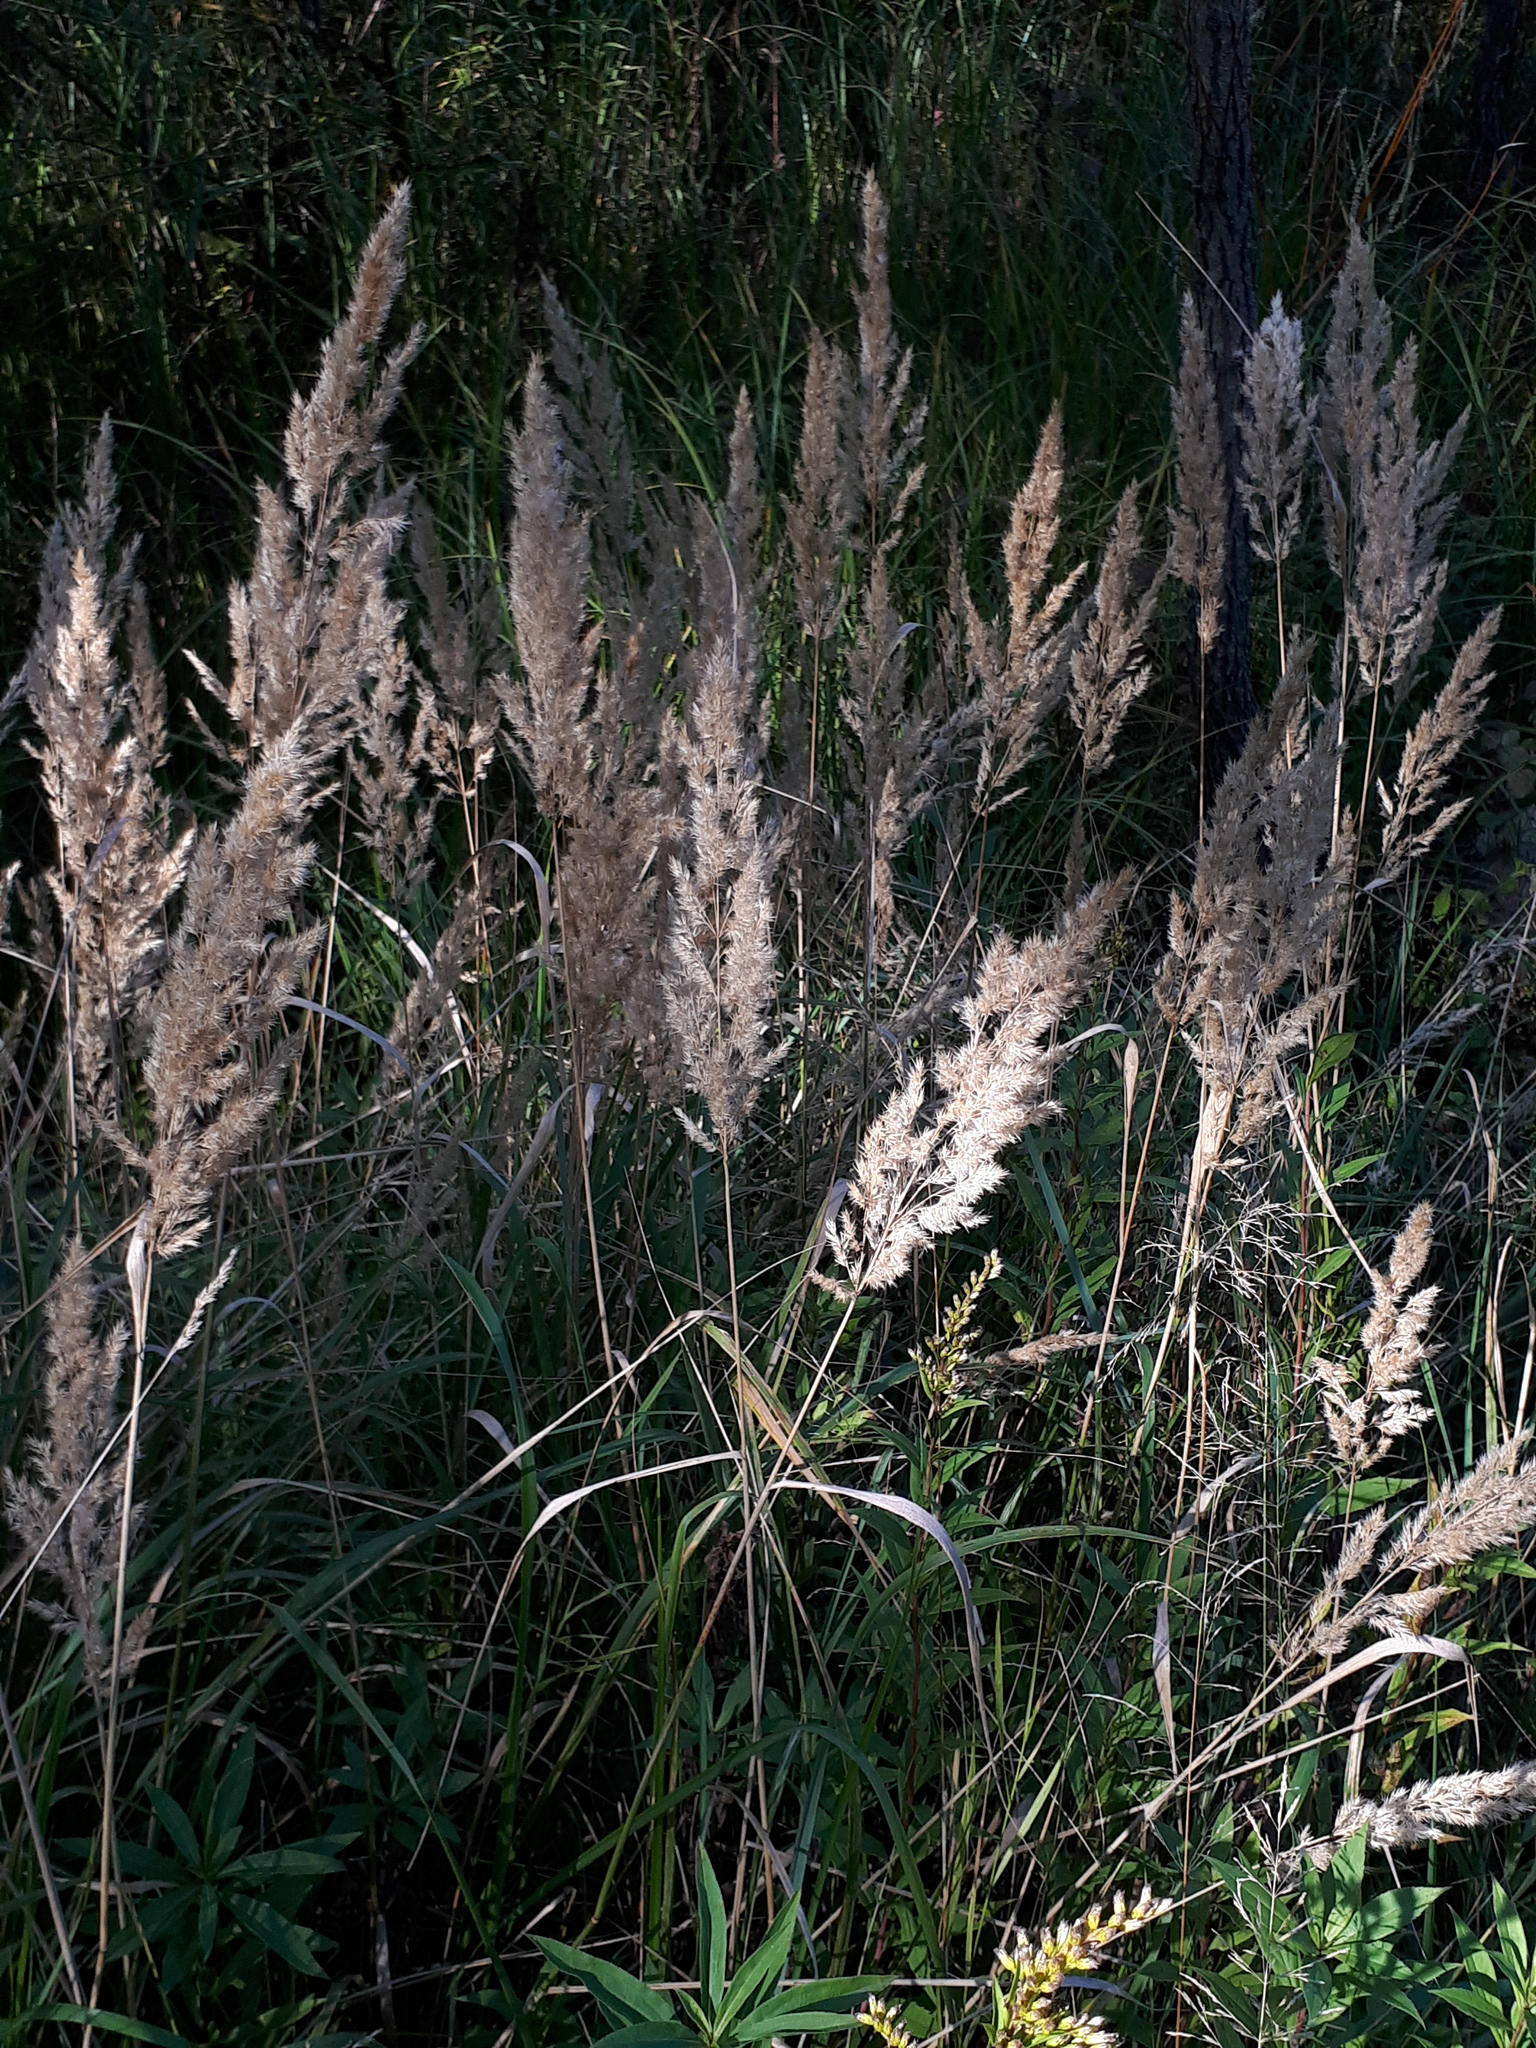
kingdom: Plantae
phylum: Tracheophyta
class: Liliopsida
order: Poales
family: Poaceae
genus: Calamagrostis
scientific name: Calamagrostis epigejos
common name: Wood small-reed
